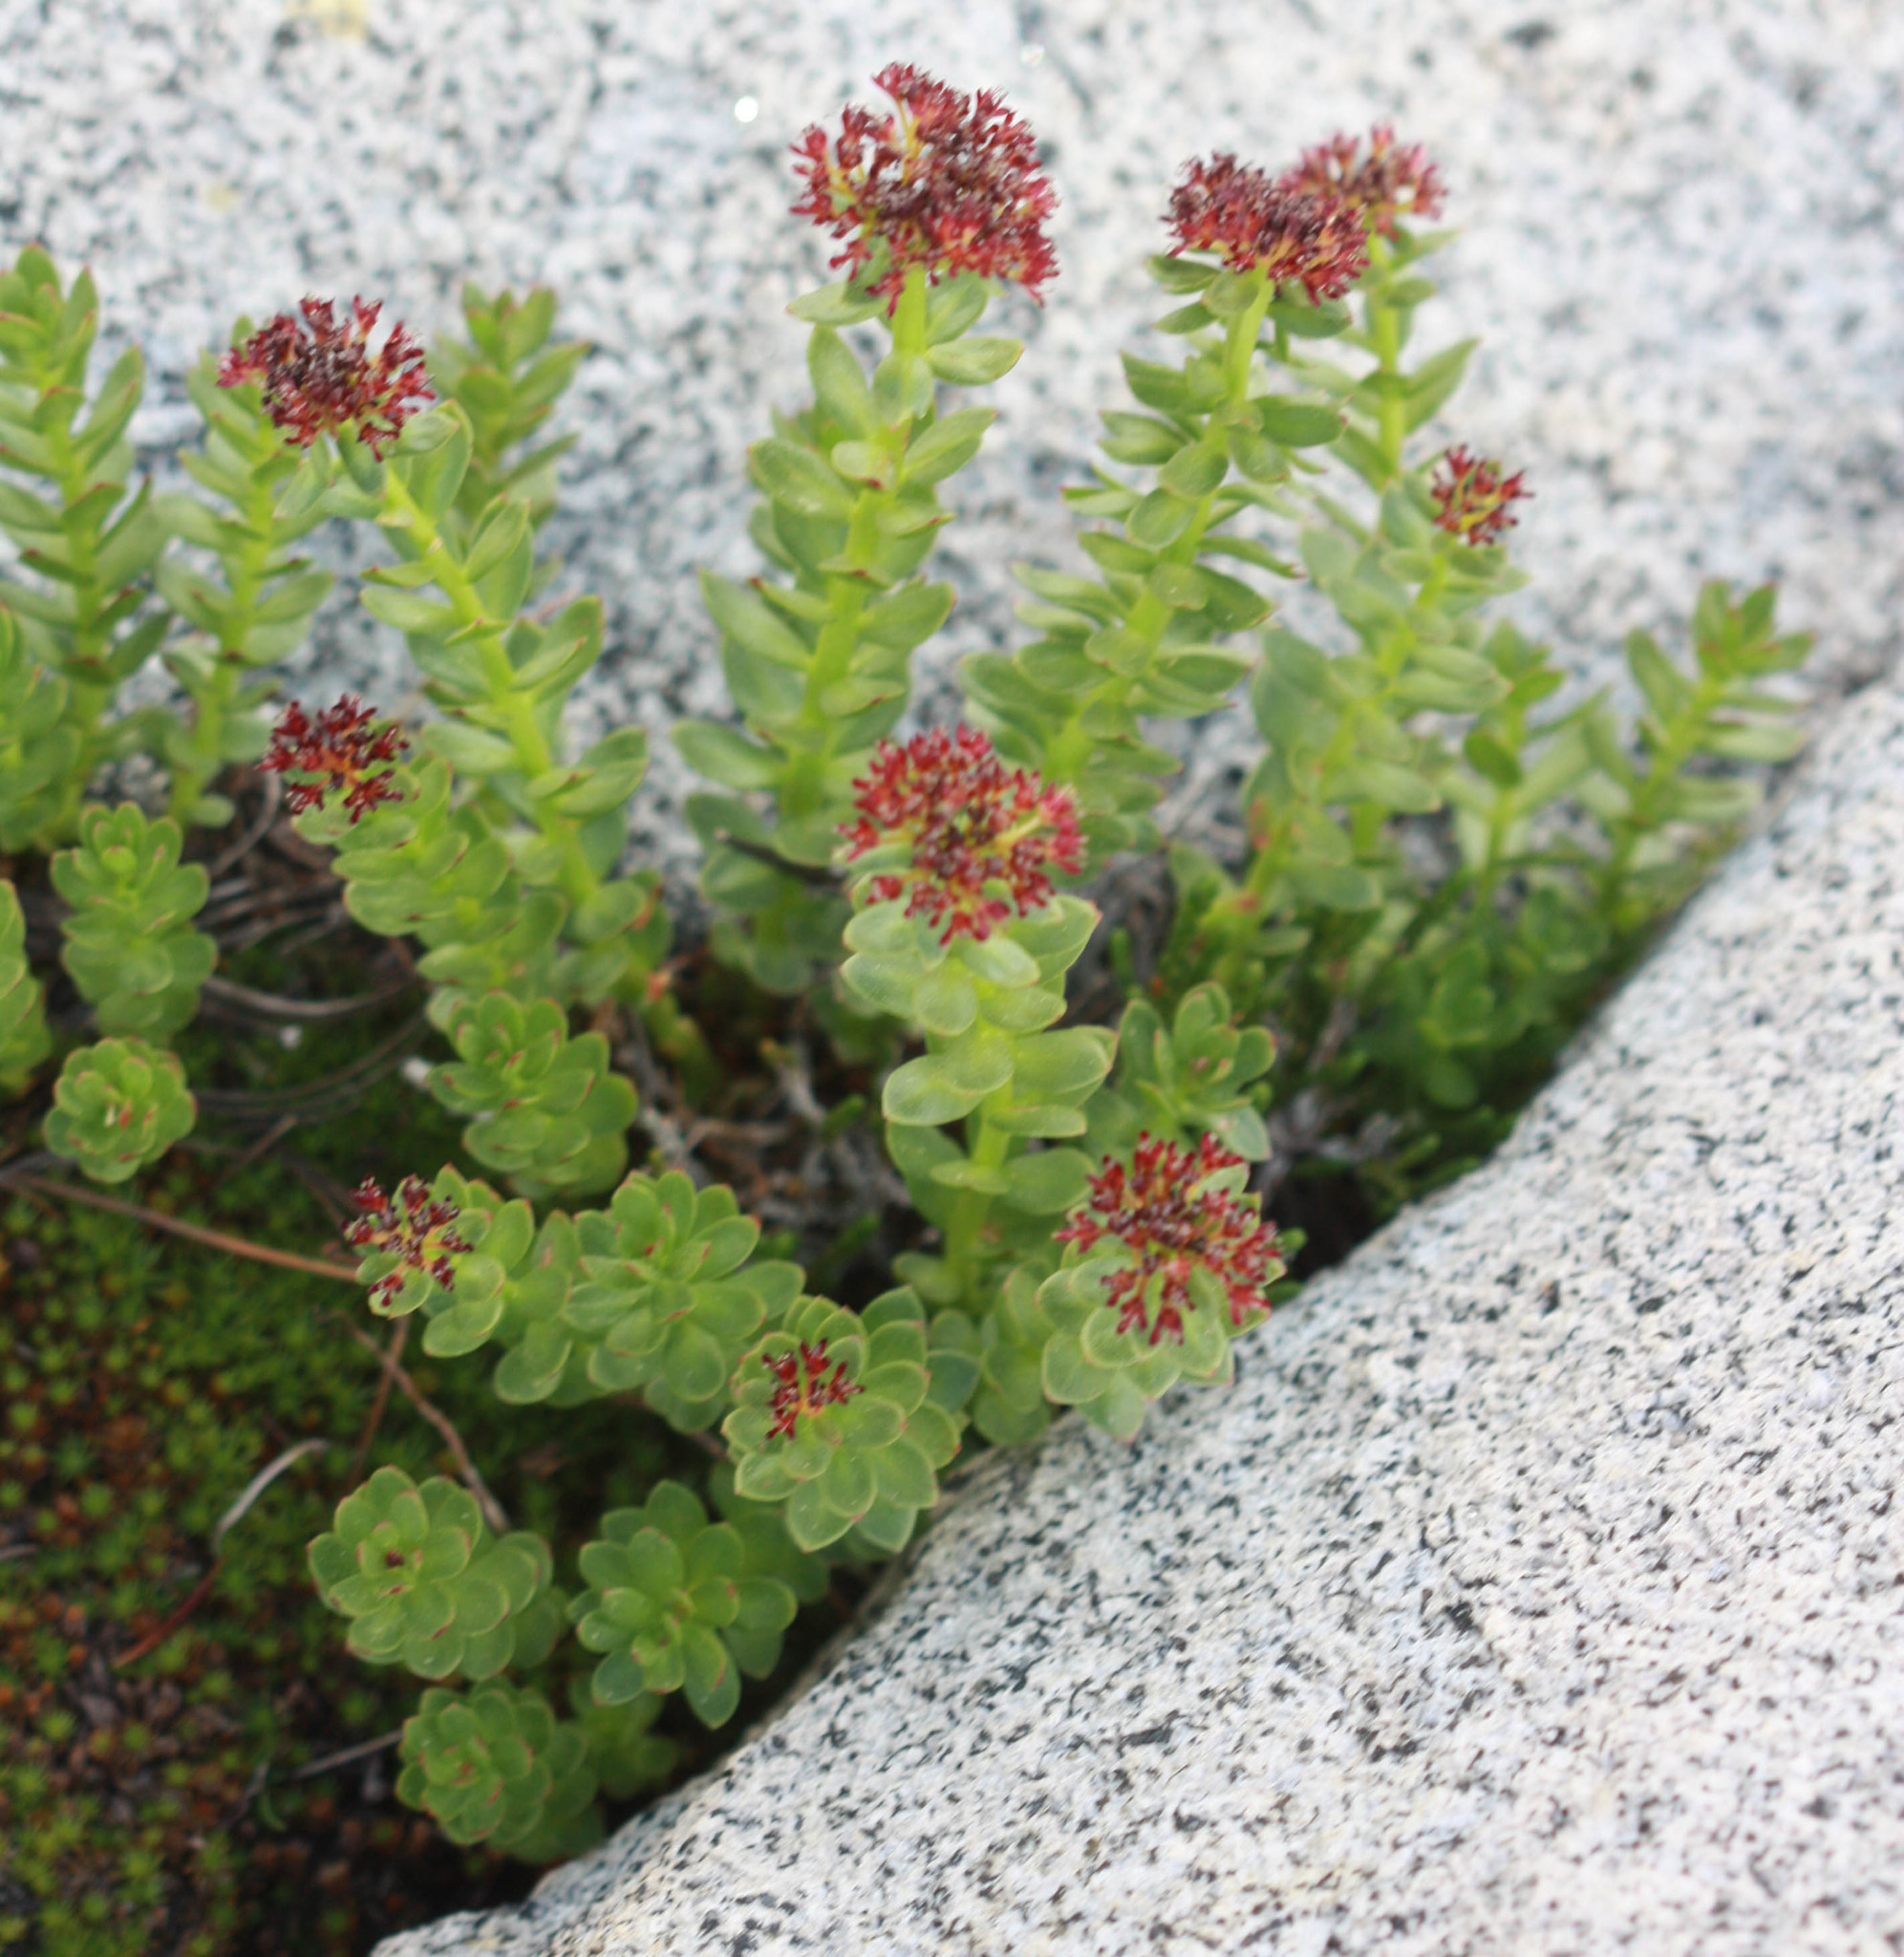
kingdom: Plantae
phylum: Tracheophyta
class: Magnoliopsida
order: Saxifragales
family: Crassulaceae
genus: Rhodiola
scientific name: Rhodiola integrifolia
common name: Western roseroot
